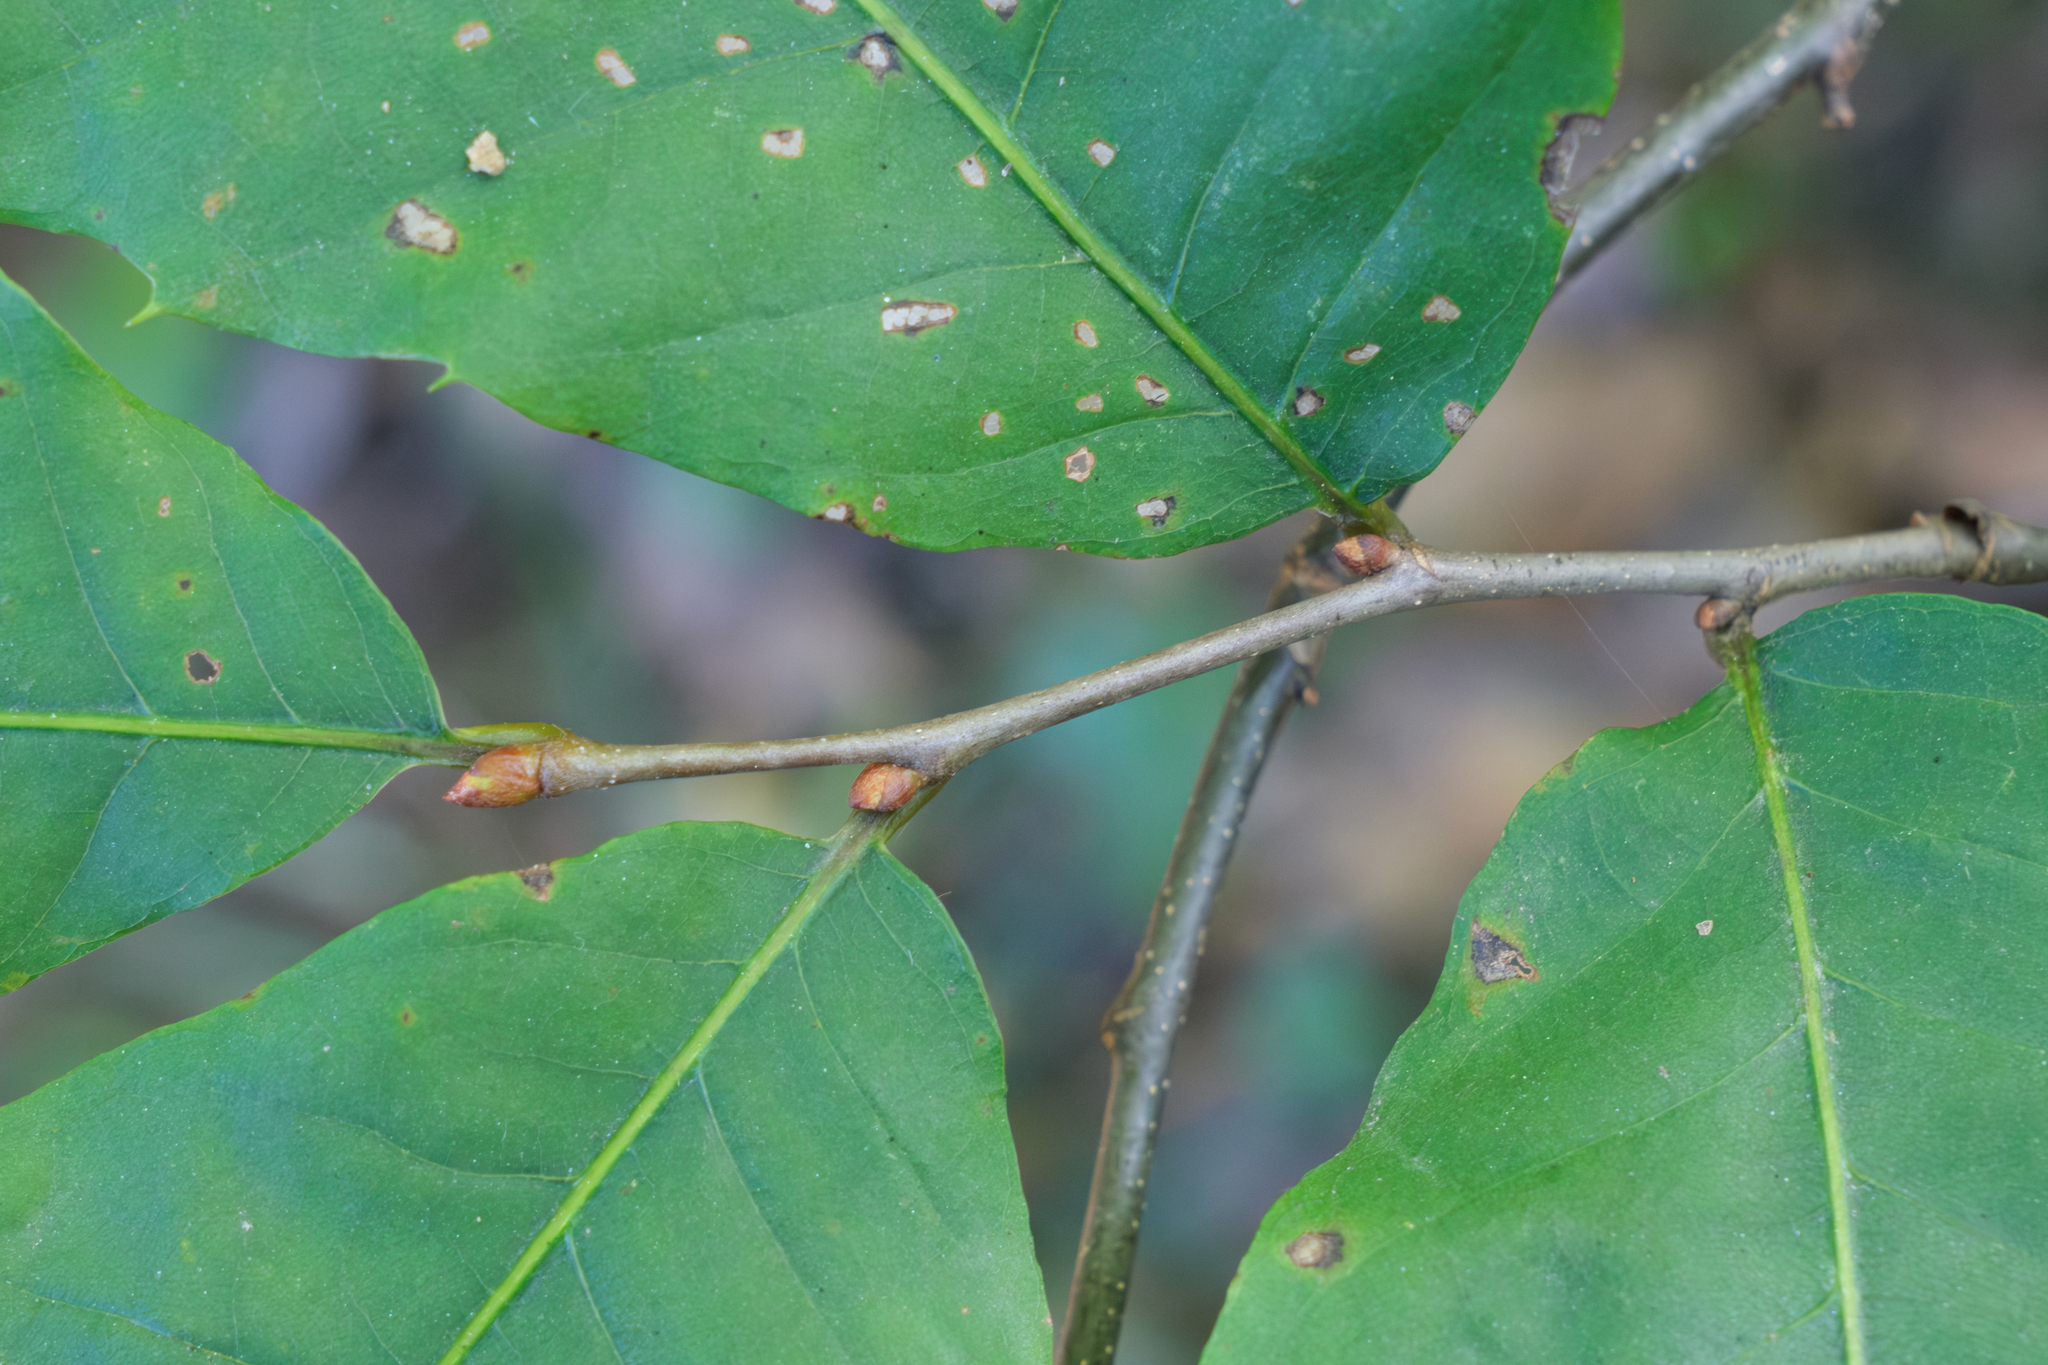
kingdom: Plantae
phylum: Tracheophyta
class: Magnoliopsida
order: Fagales
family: Fagaceae
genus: Castanea
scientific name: Castanea dentata
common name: American chestnut
